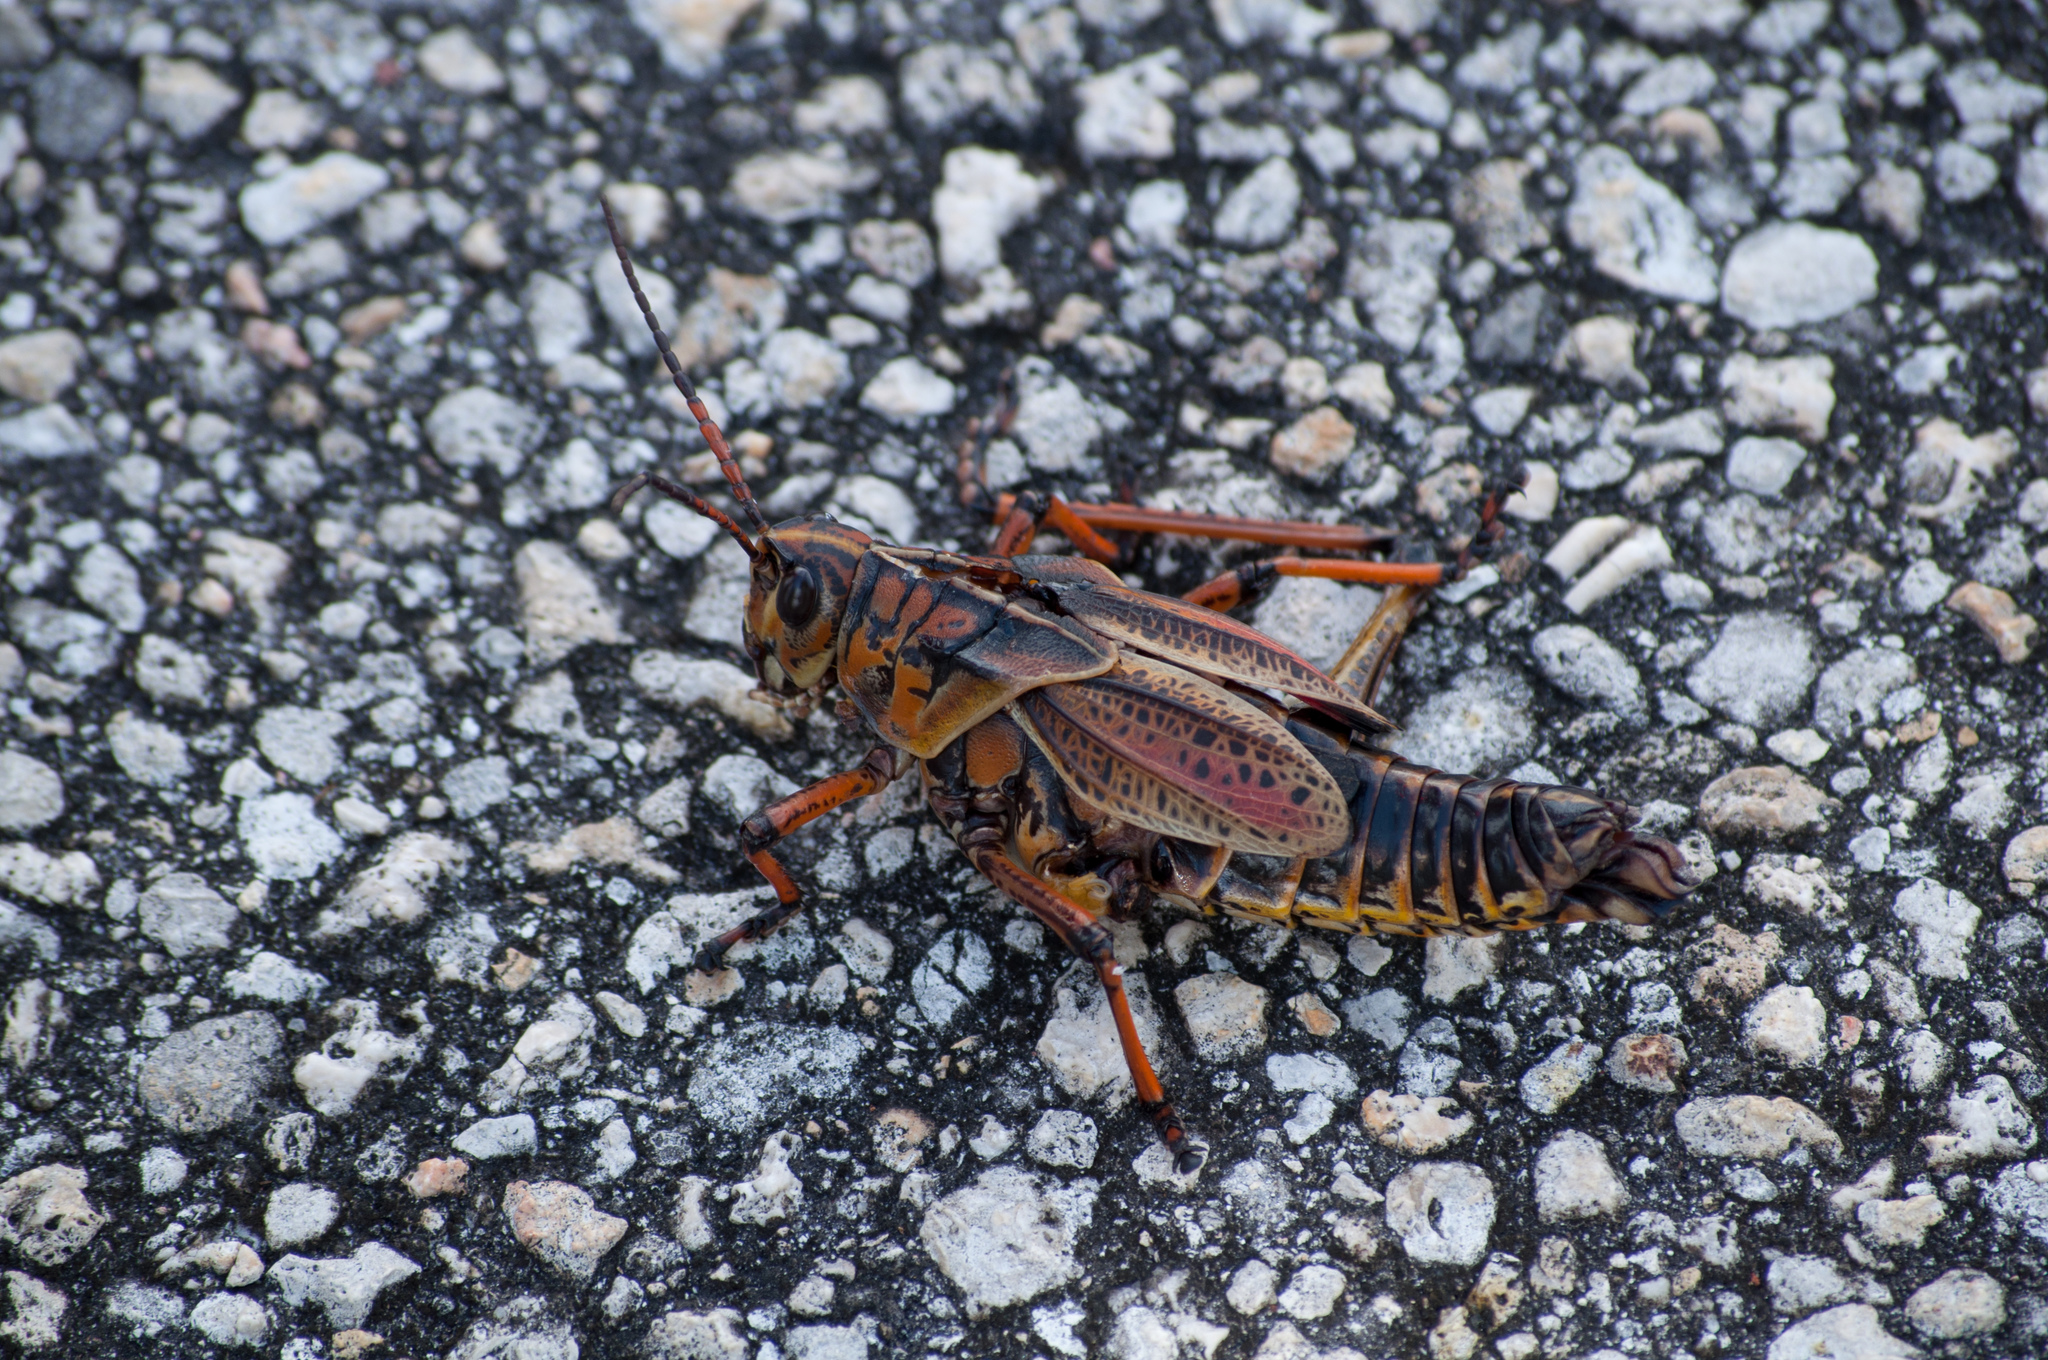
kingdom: Animalia
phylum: Arthropoda
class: Insecta
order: Orthoptera
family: Romaleidae
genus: Romalea
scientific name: Romalea microptera
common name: Eastern lubber grasshopper
